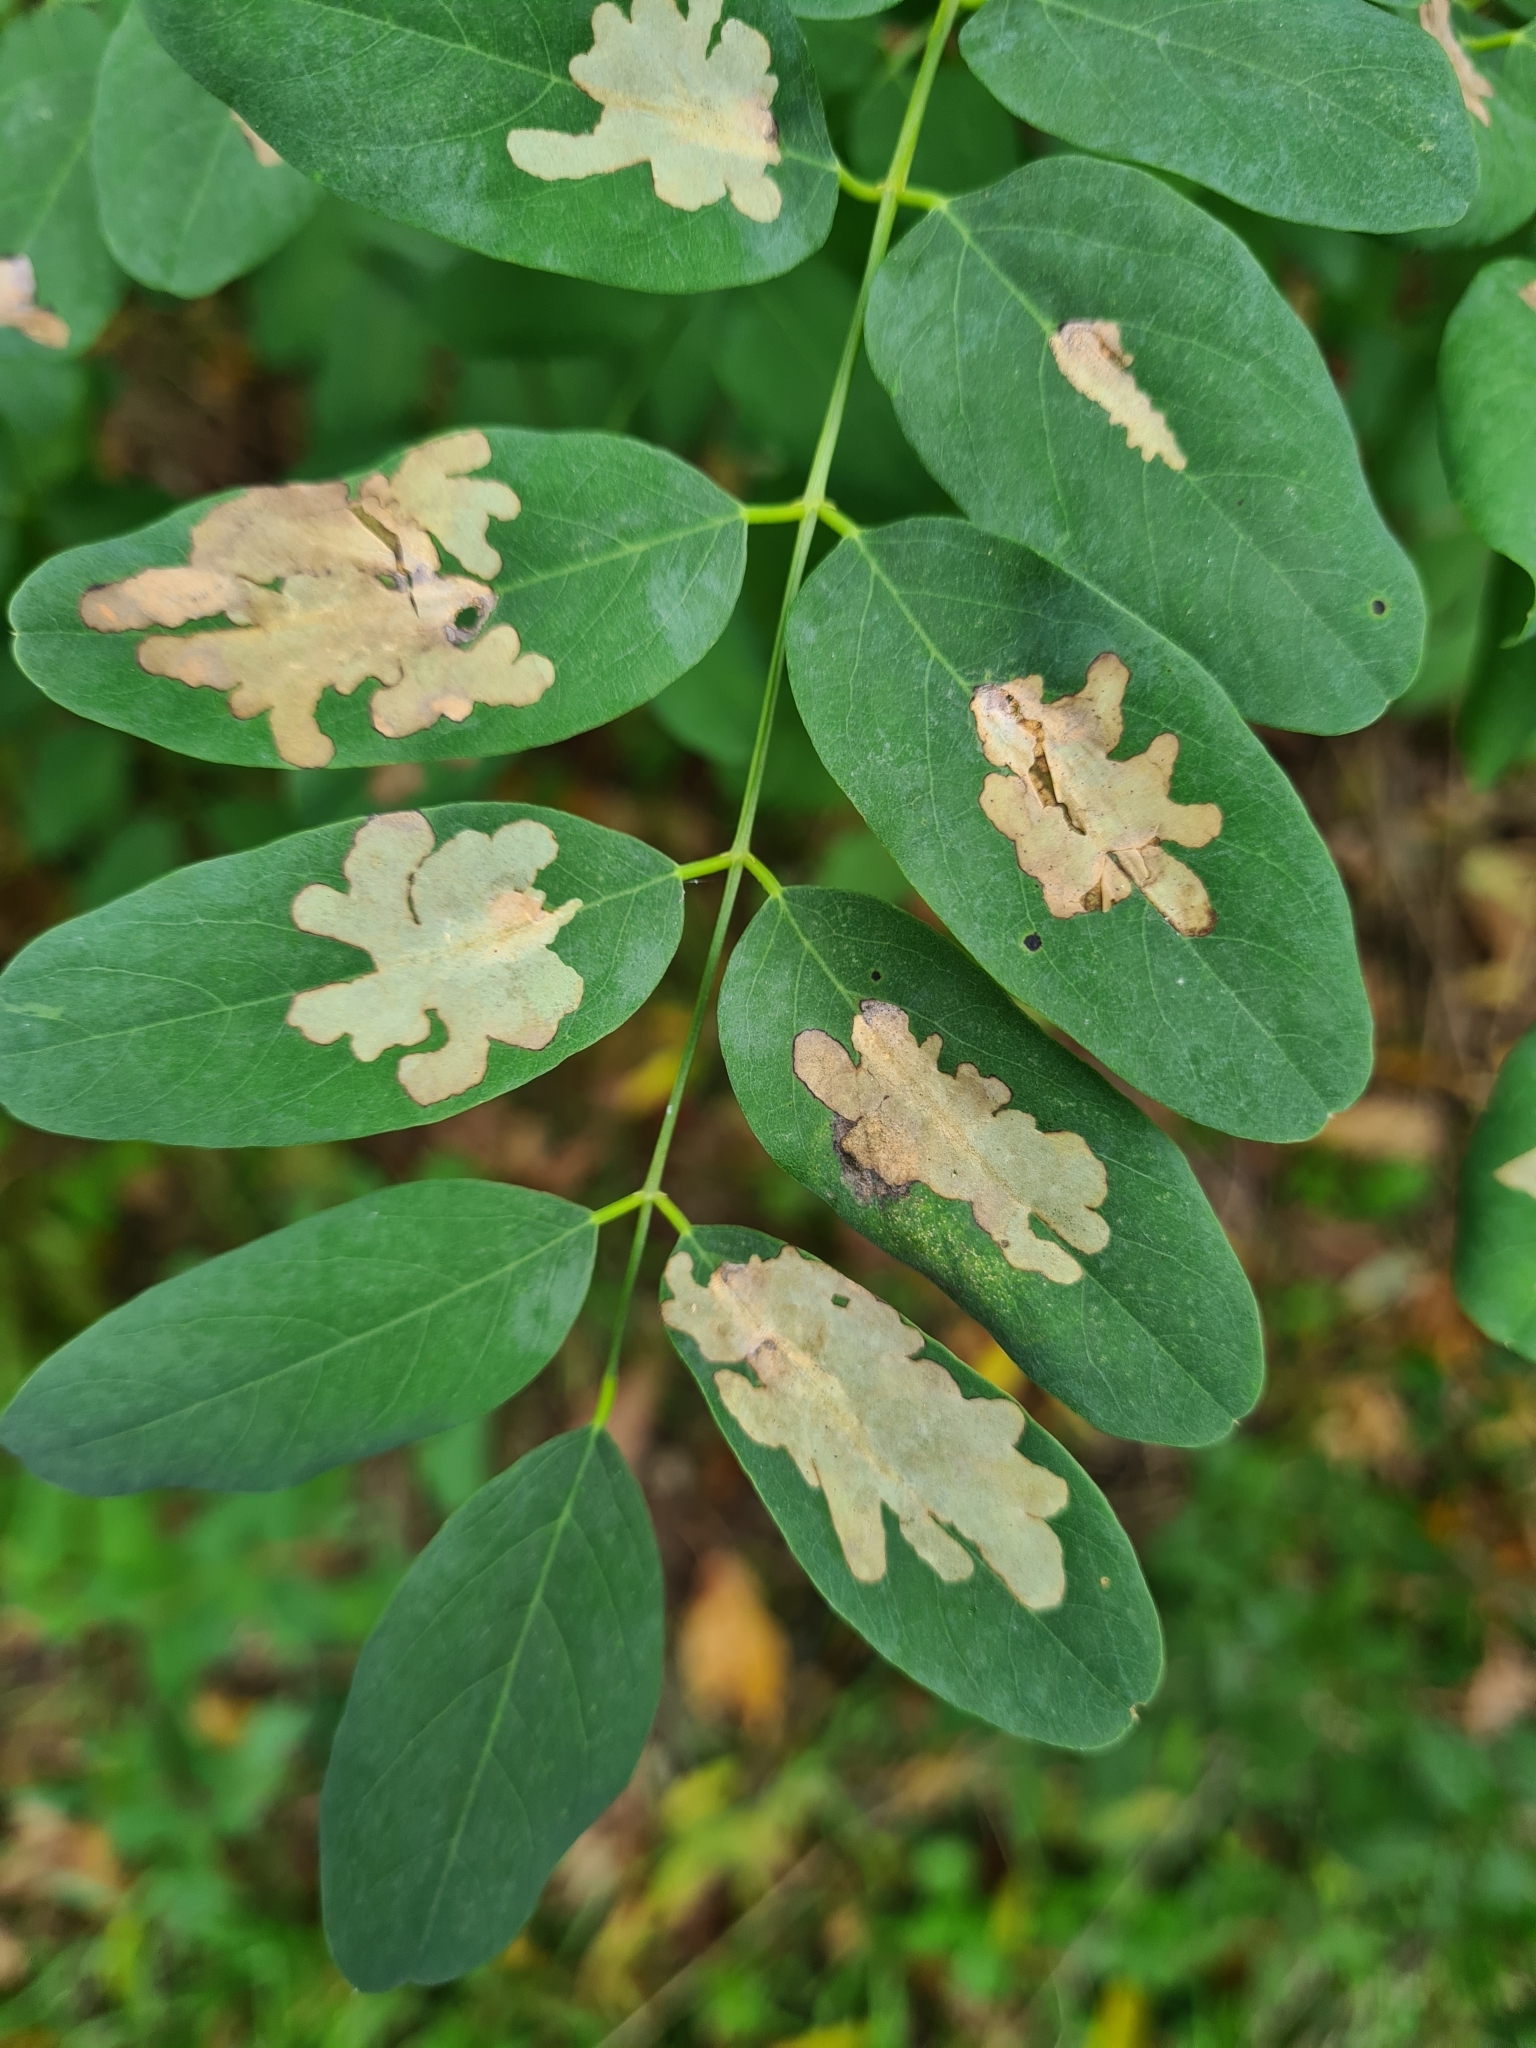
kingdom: Animalia
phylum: Arthropoda
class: Insecta
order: Lepidoptera
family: Gracillariidae
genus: Parectopa
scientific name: Parectopa robiniella
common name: Locust digitate leafminer
